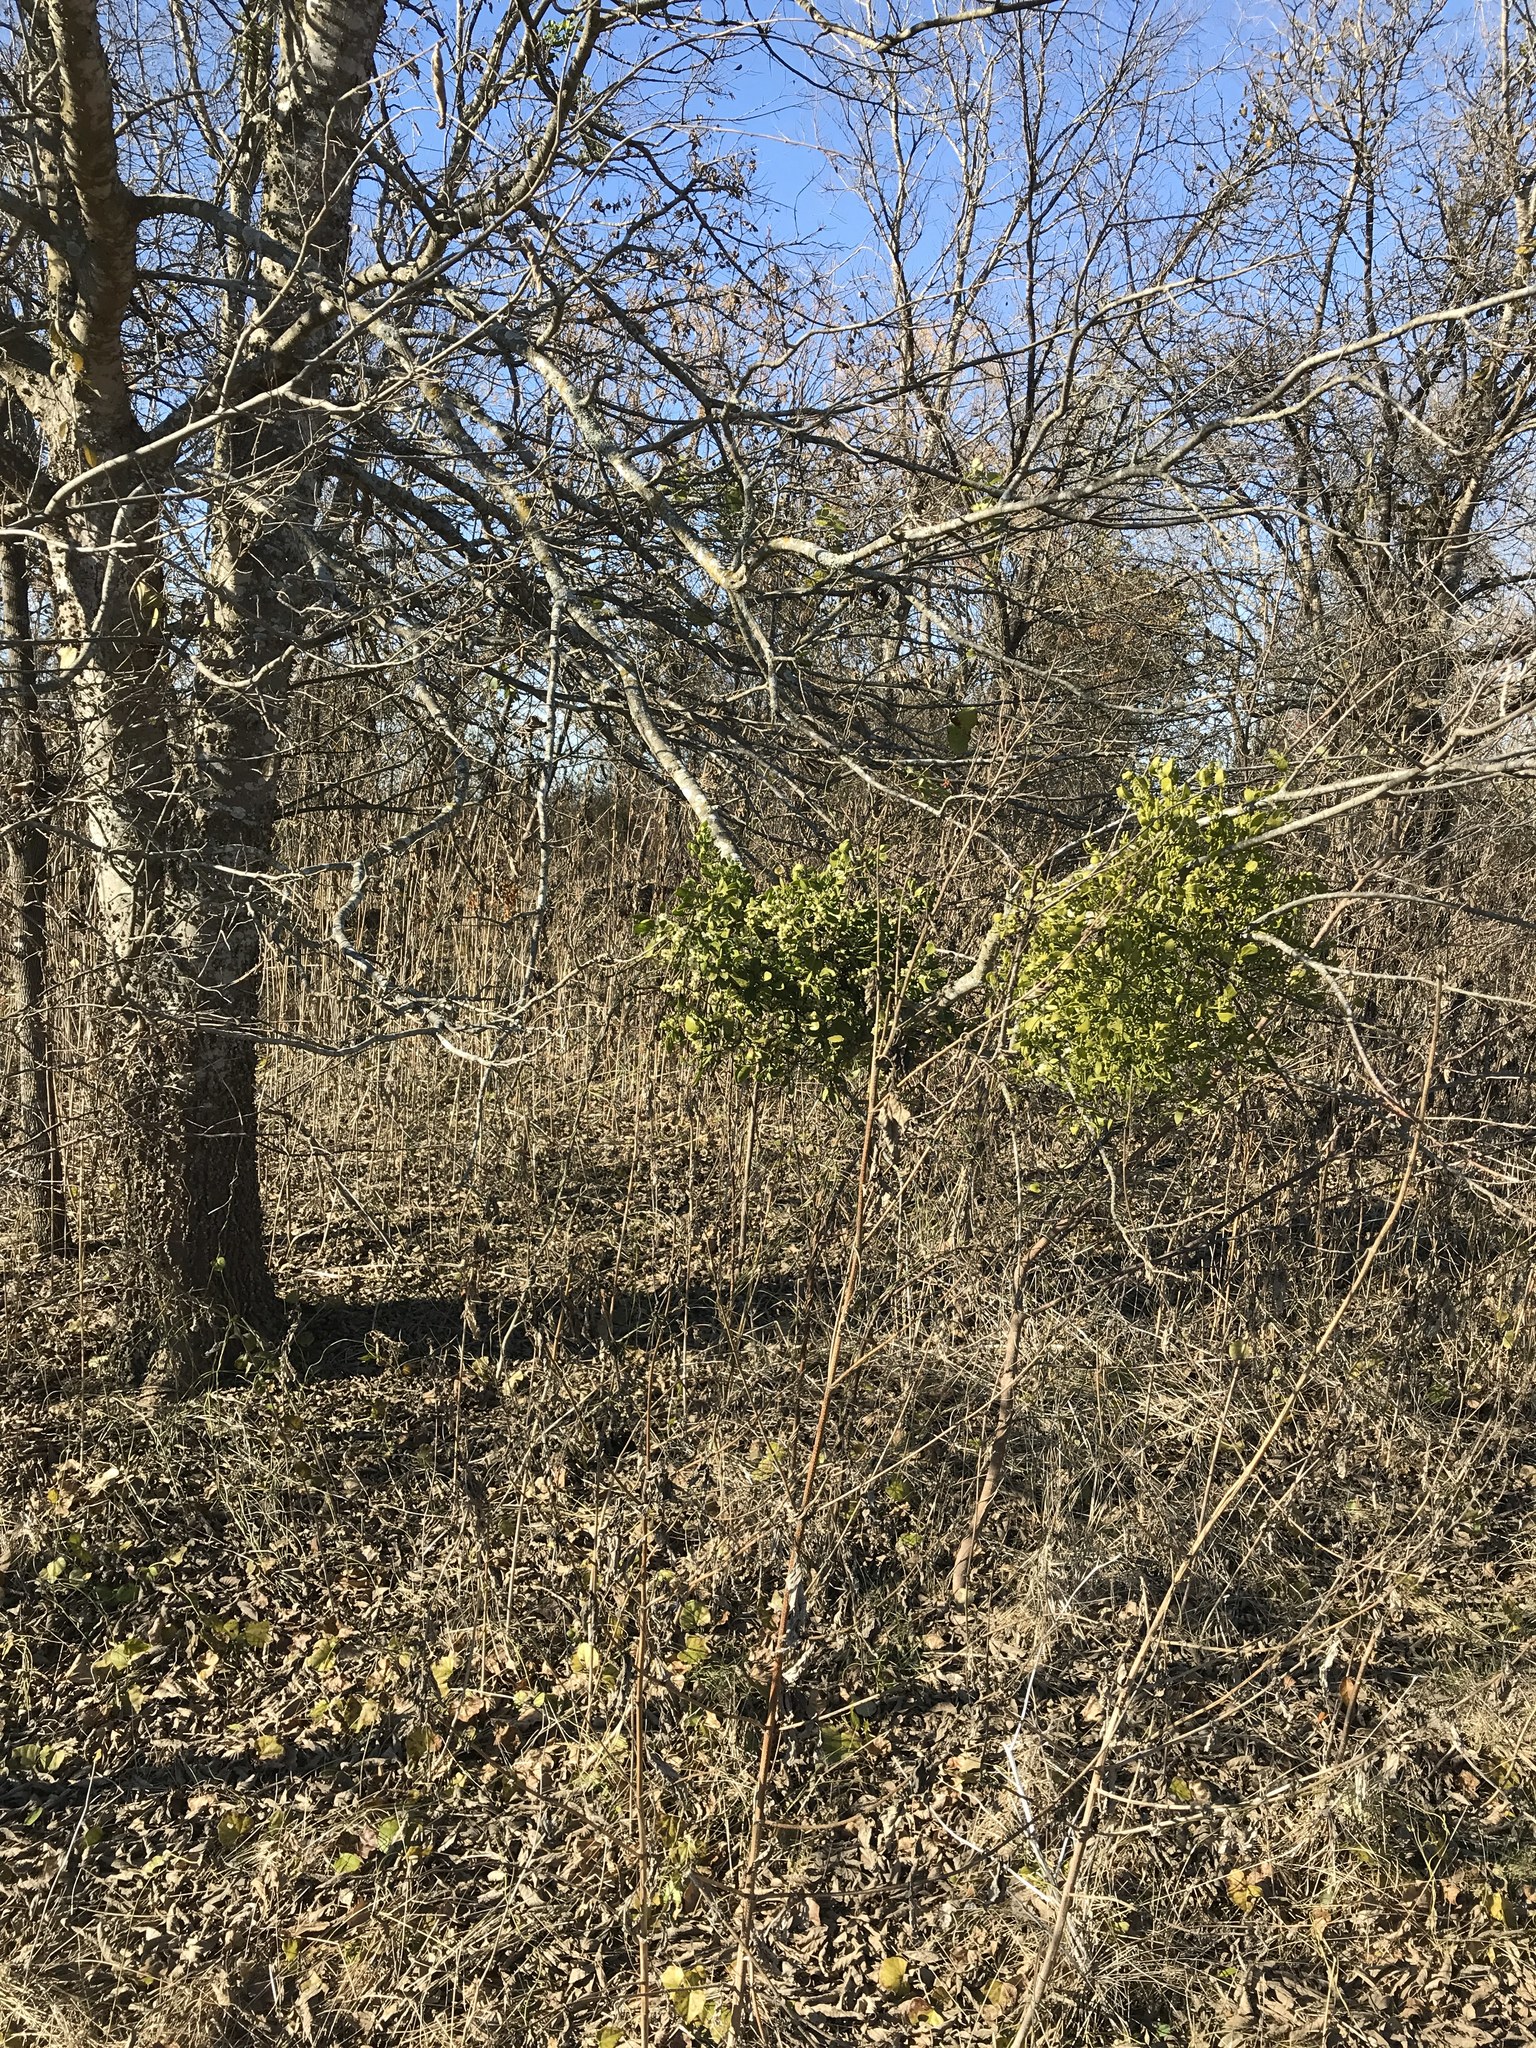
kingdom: Plantae
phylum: Tracheophyta
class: Magnoliopsida
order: Santalales
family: Viscaceae
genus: Phoradendron
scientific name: Phoradendron leucarpum
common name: Pacific mistletoe
